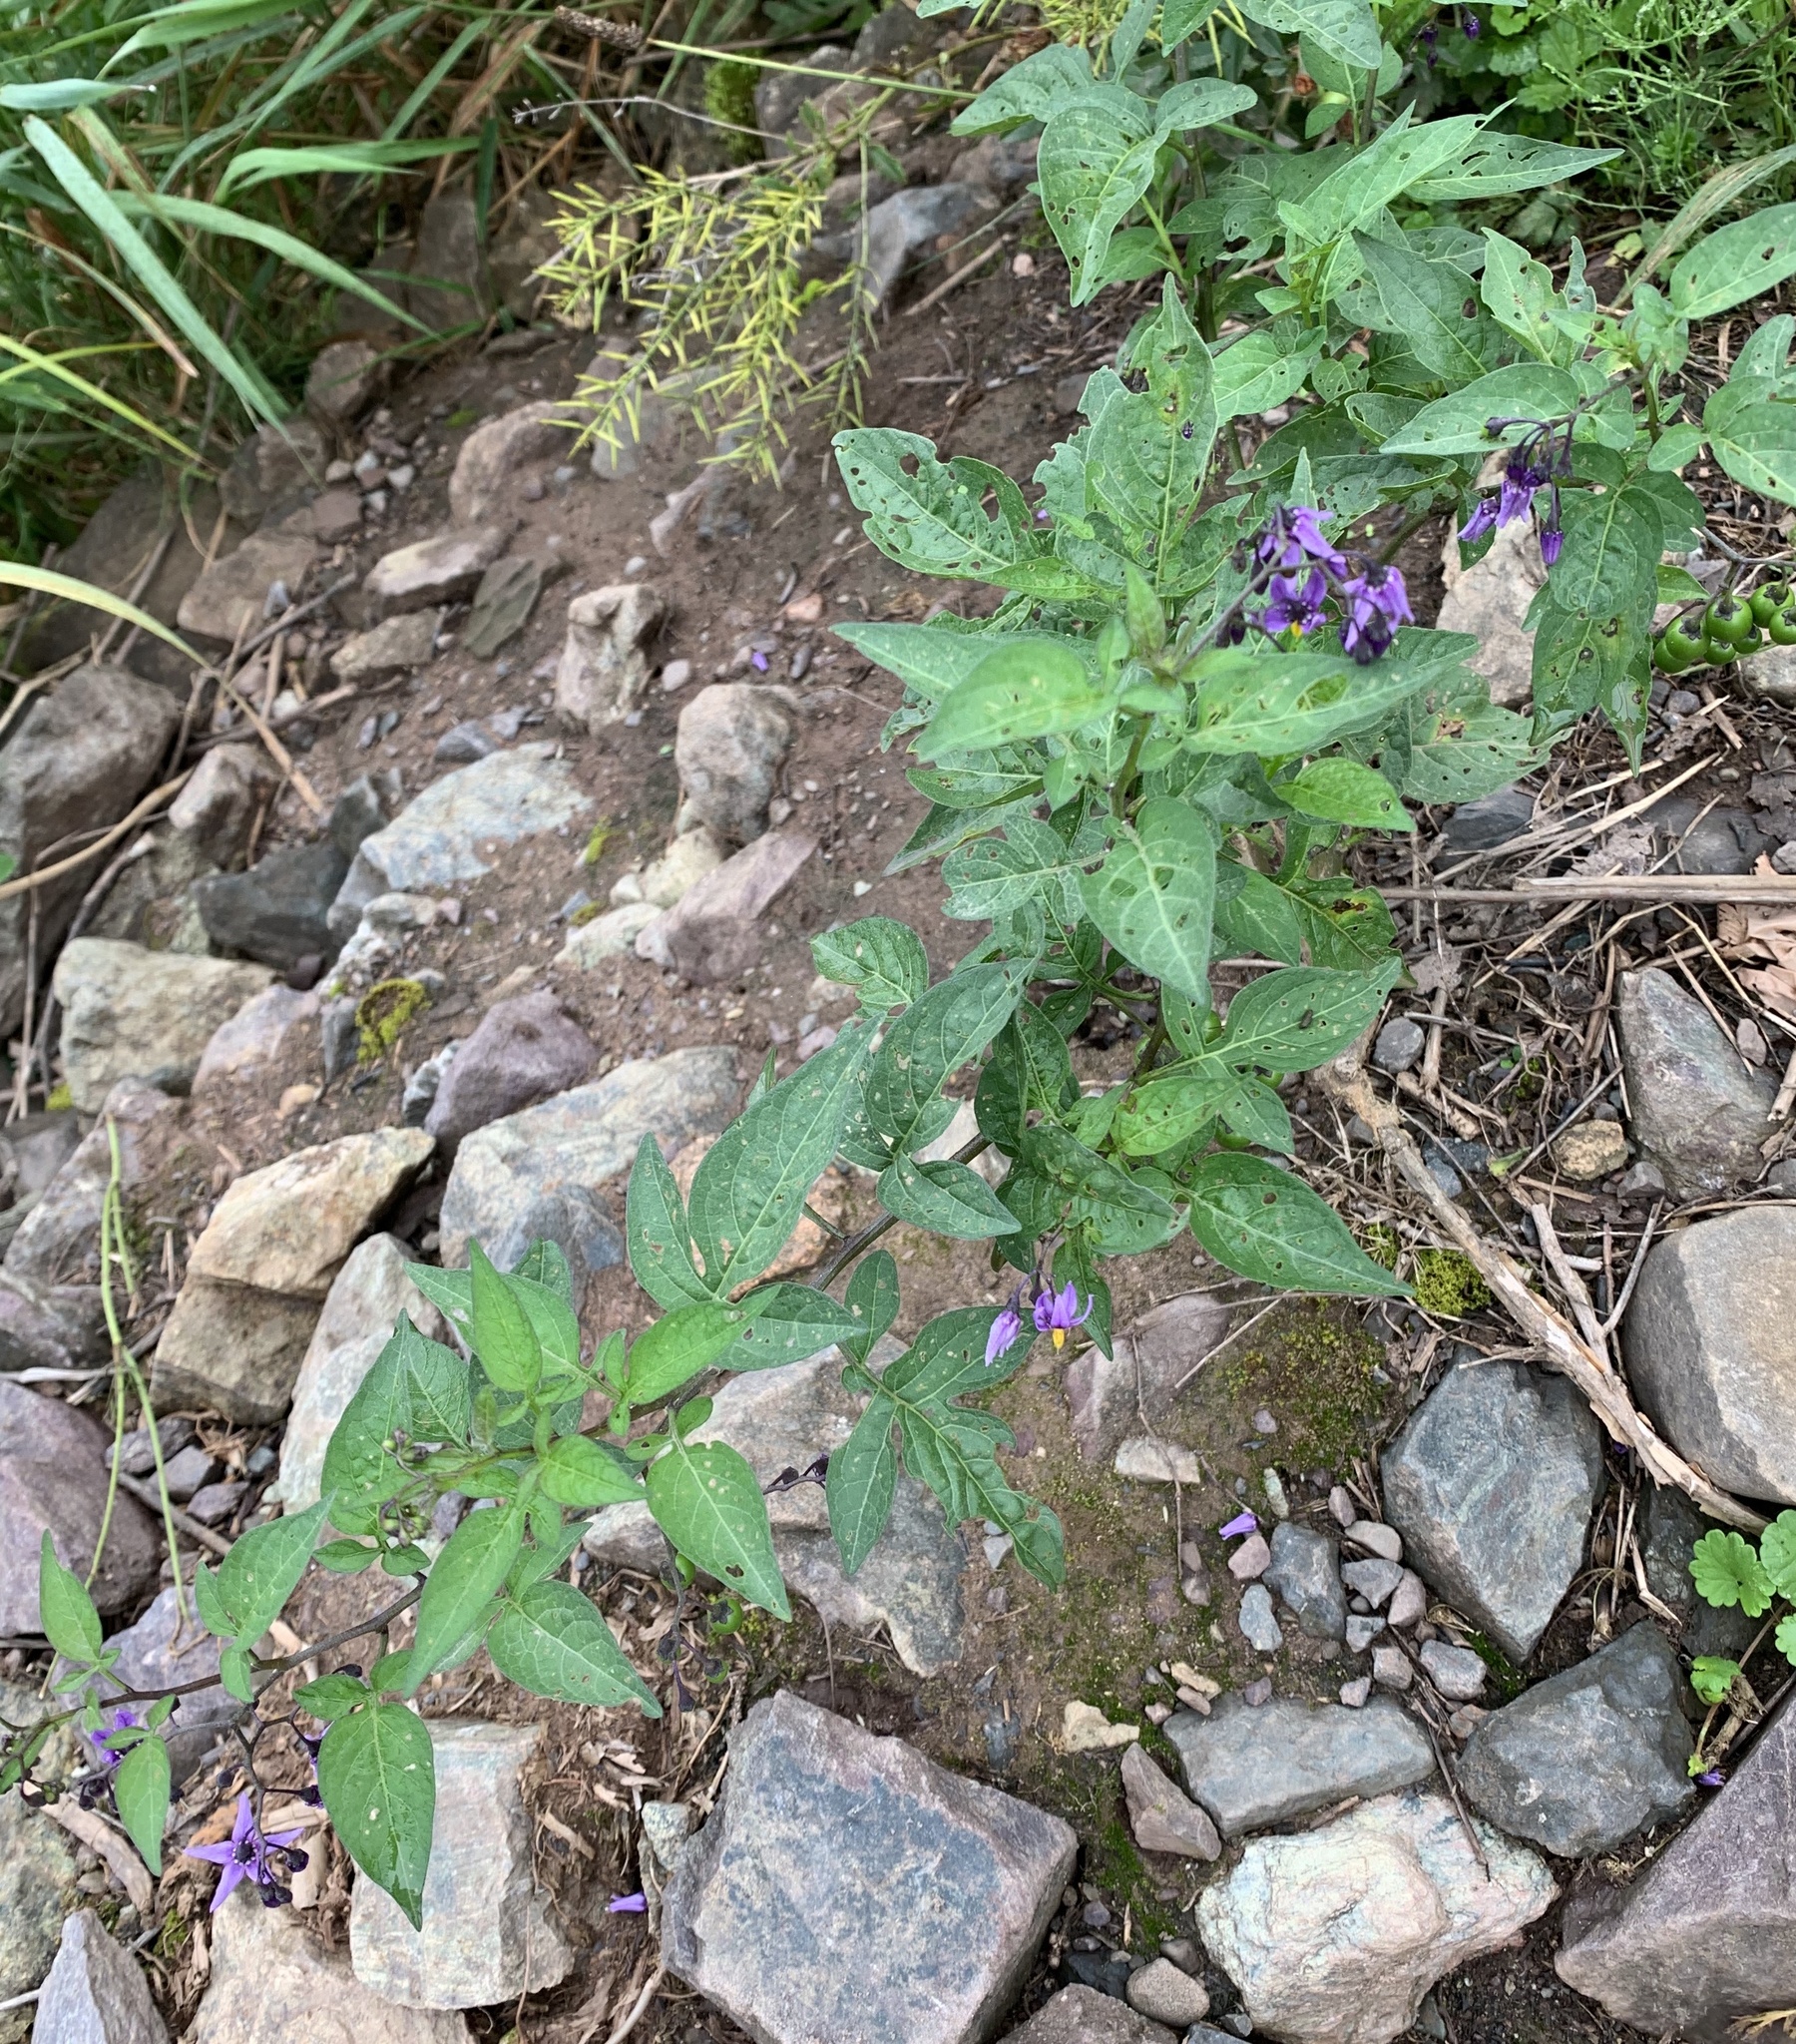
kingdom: Plantae
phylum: Tracheophyta
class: Magnoliopsida
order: Solanales
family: Solanaceae
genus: Solanum
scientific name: Solanum dulcamara
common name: Climbing nightshade
